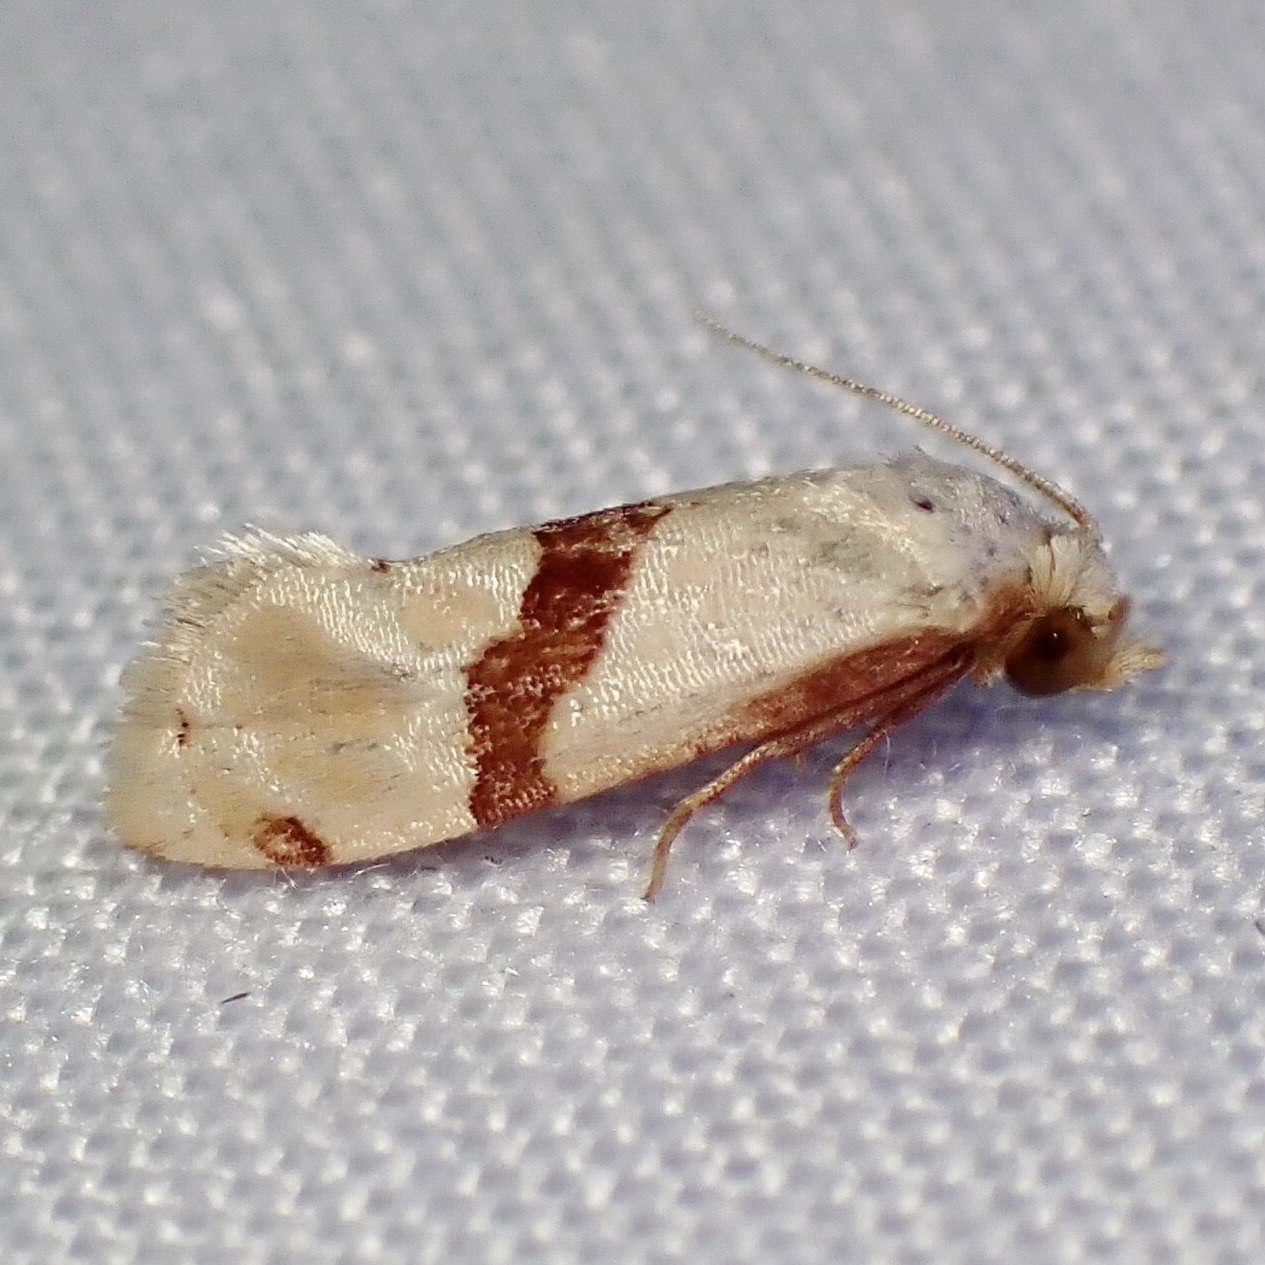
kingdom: Animalia
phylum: Arthropoda
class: Insecta
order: Lepidoptera
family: Tortricidae
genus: Cochylimorpha
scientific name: Cochylimorpha Nycthia pimana
